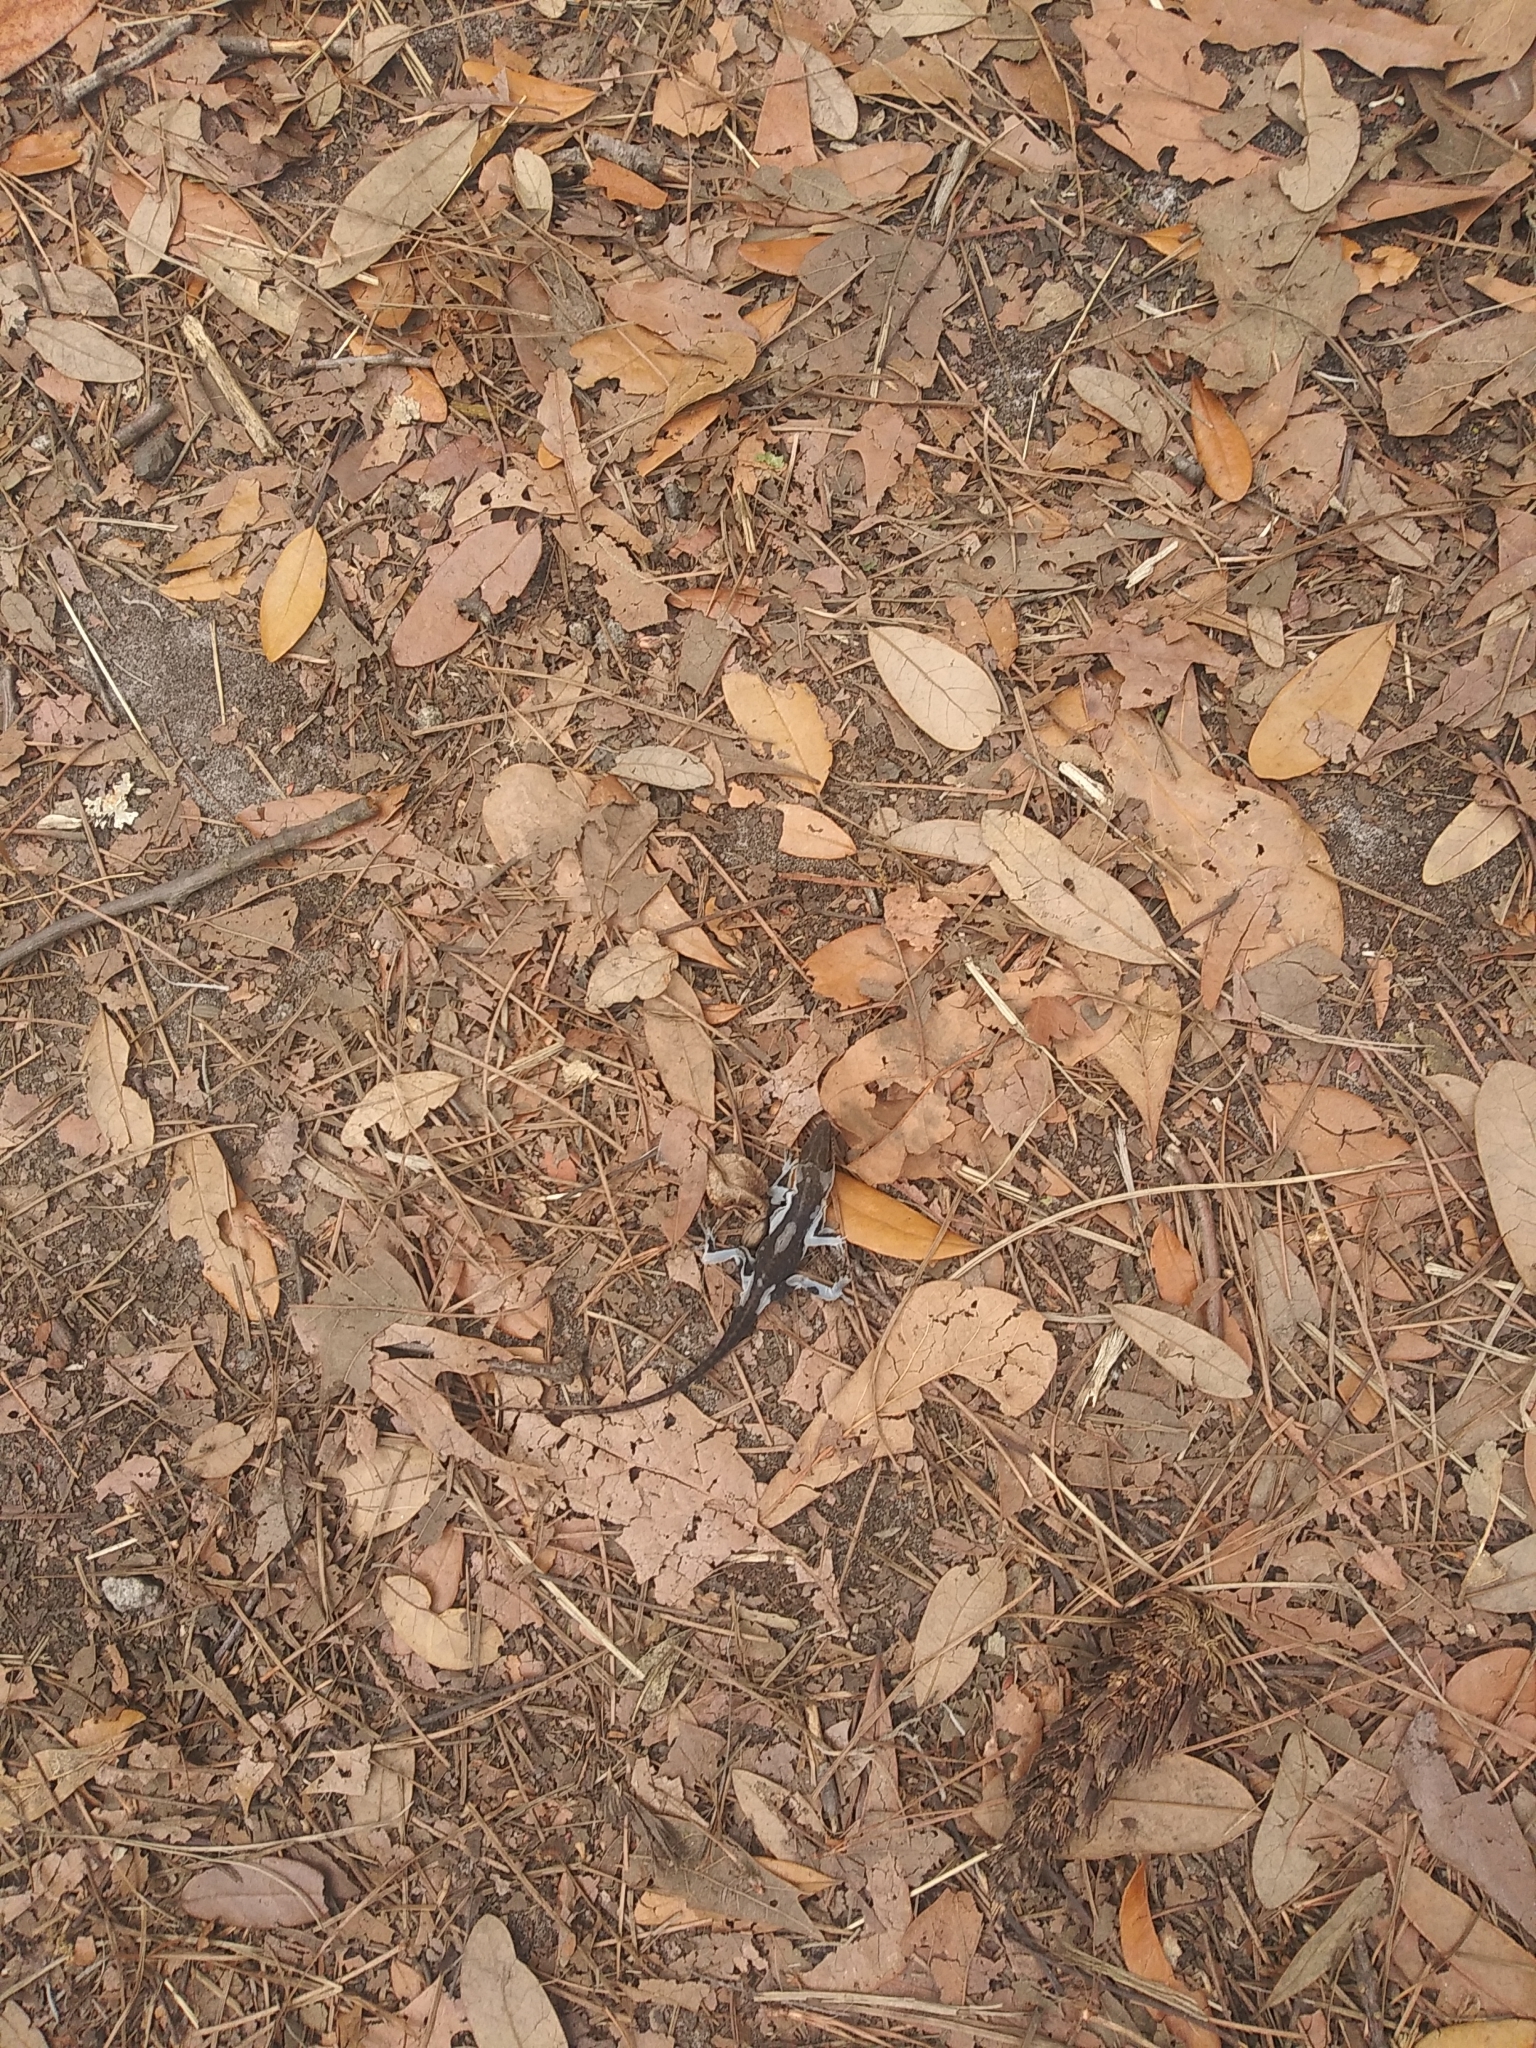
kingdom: Animalia
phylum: Chordata
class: Squamata
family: Dactyloidae
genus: Anolis
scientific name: Anolis carolinensis
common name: Green anole
